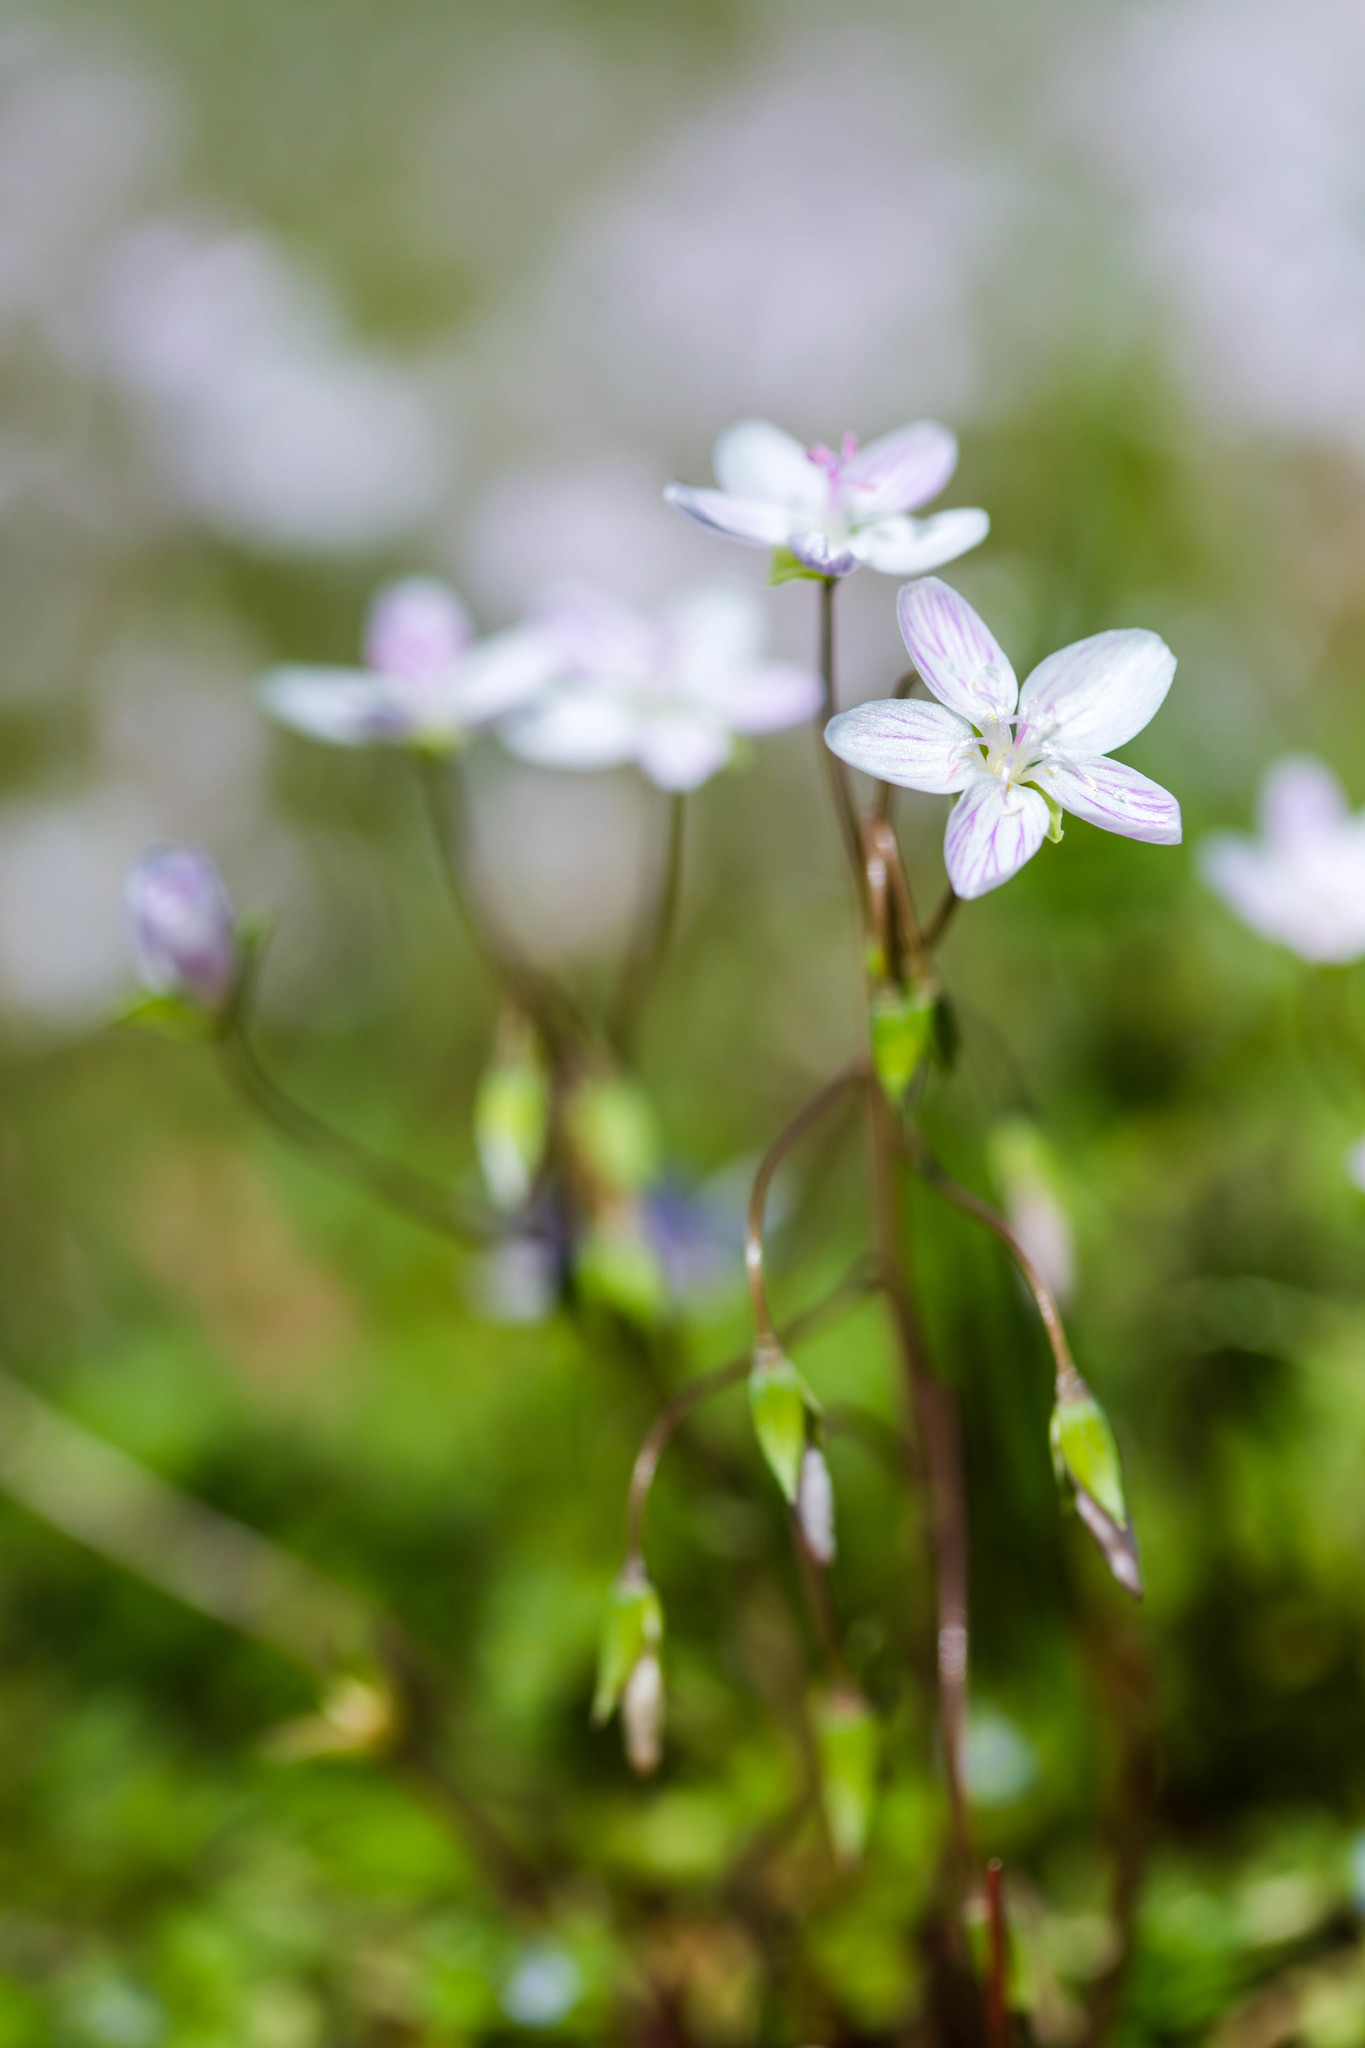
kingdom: Plantae
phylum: Tracheophyta
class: Magnoliopsida
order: Caryophyllales
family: Montiaceae
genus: Claytonia
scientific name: Claytonia virginica
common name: Virginia springbeauty
